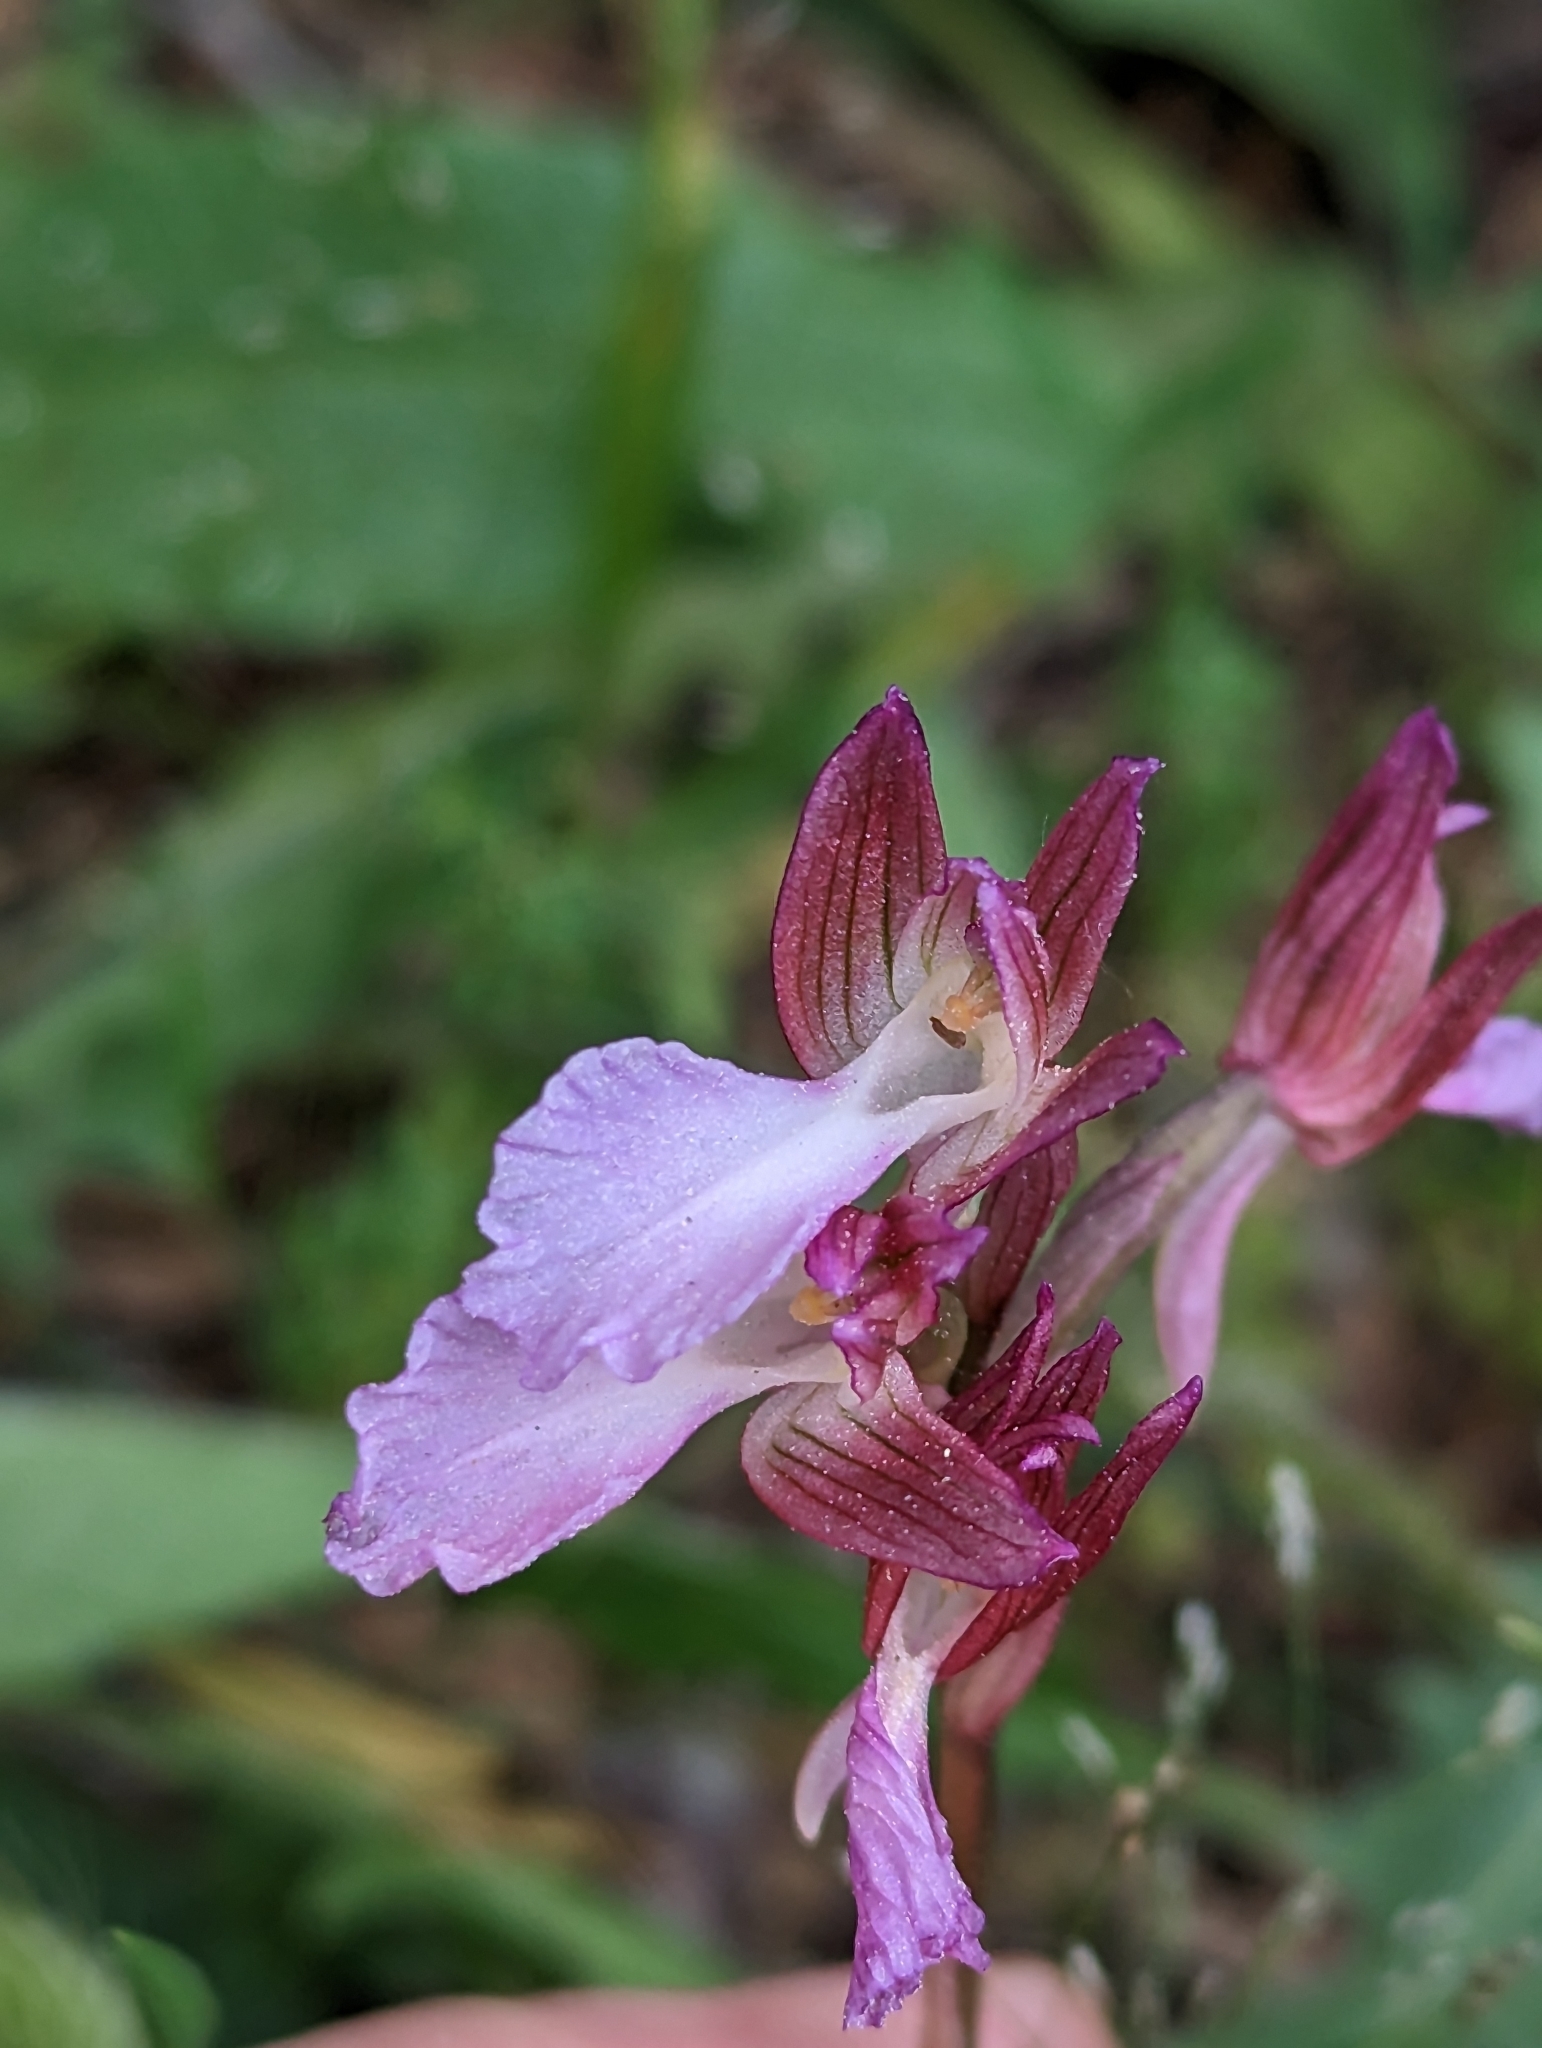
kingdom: Plantae
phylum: Tracheophyta
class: Liliopsida
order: Asparagales
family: Orchidaceae
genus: Anacamptis
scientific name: Anacamptis papilionacea
